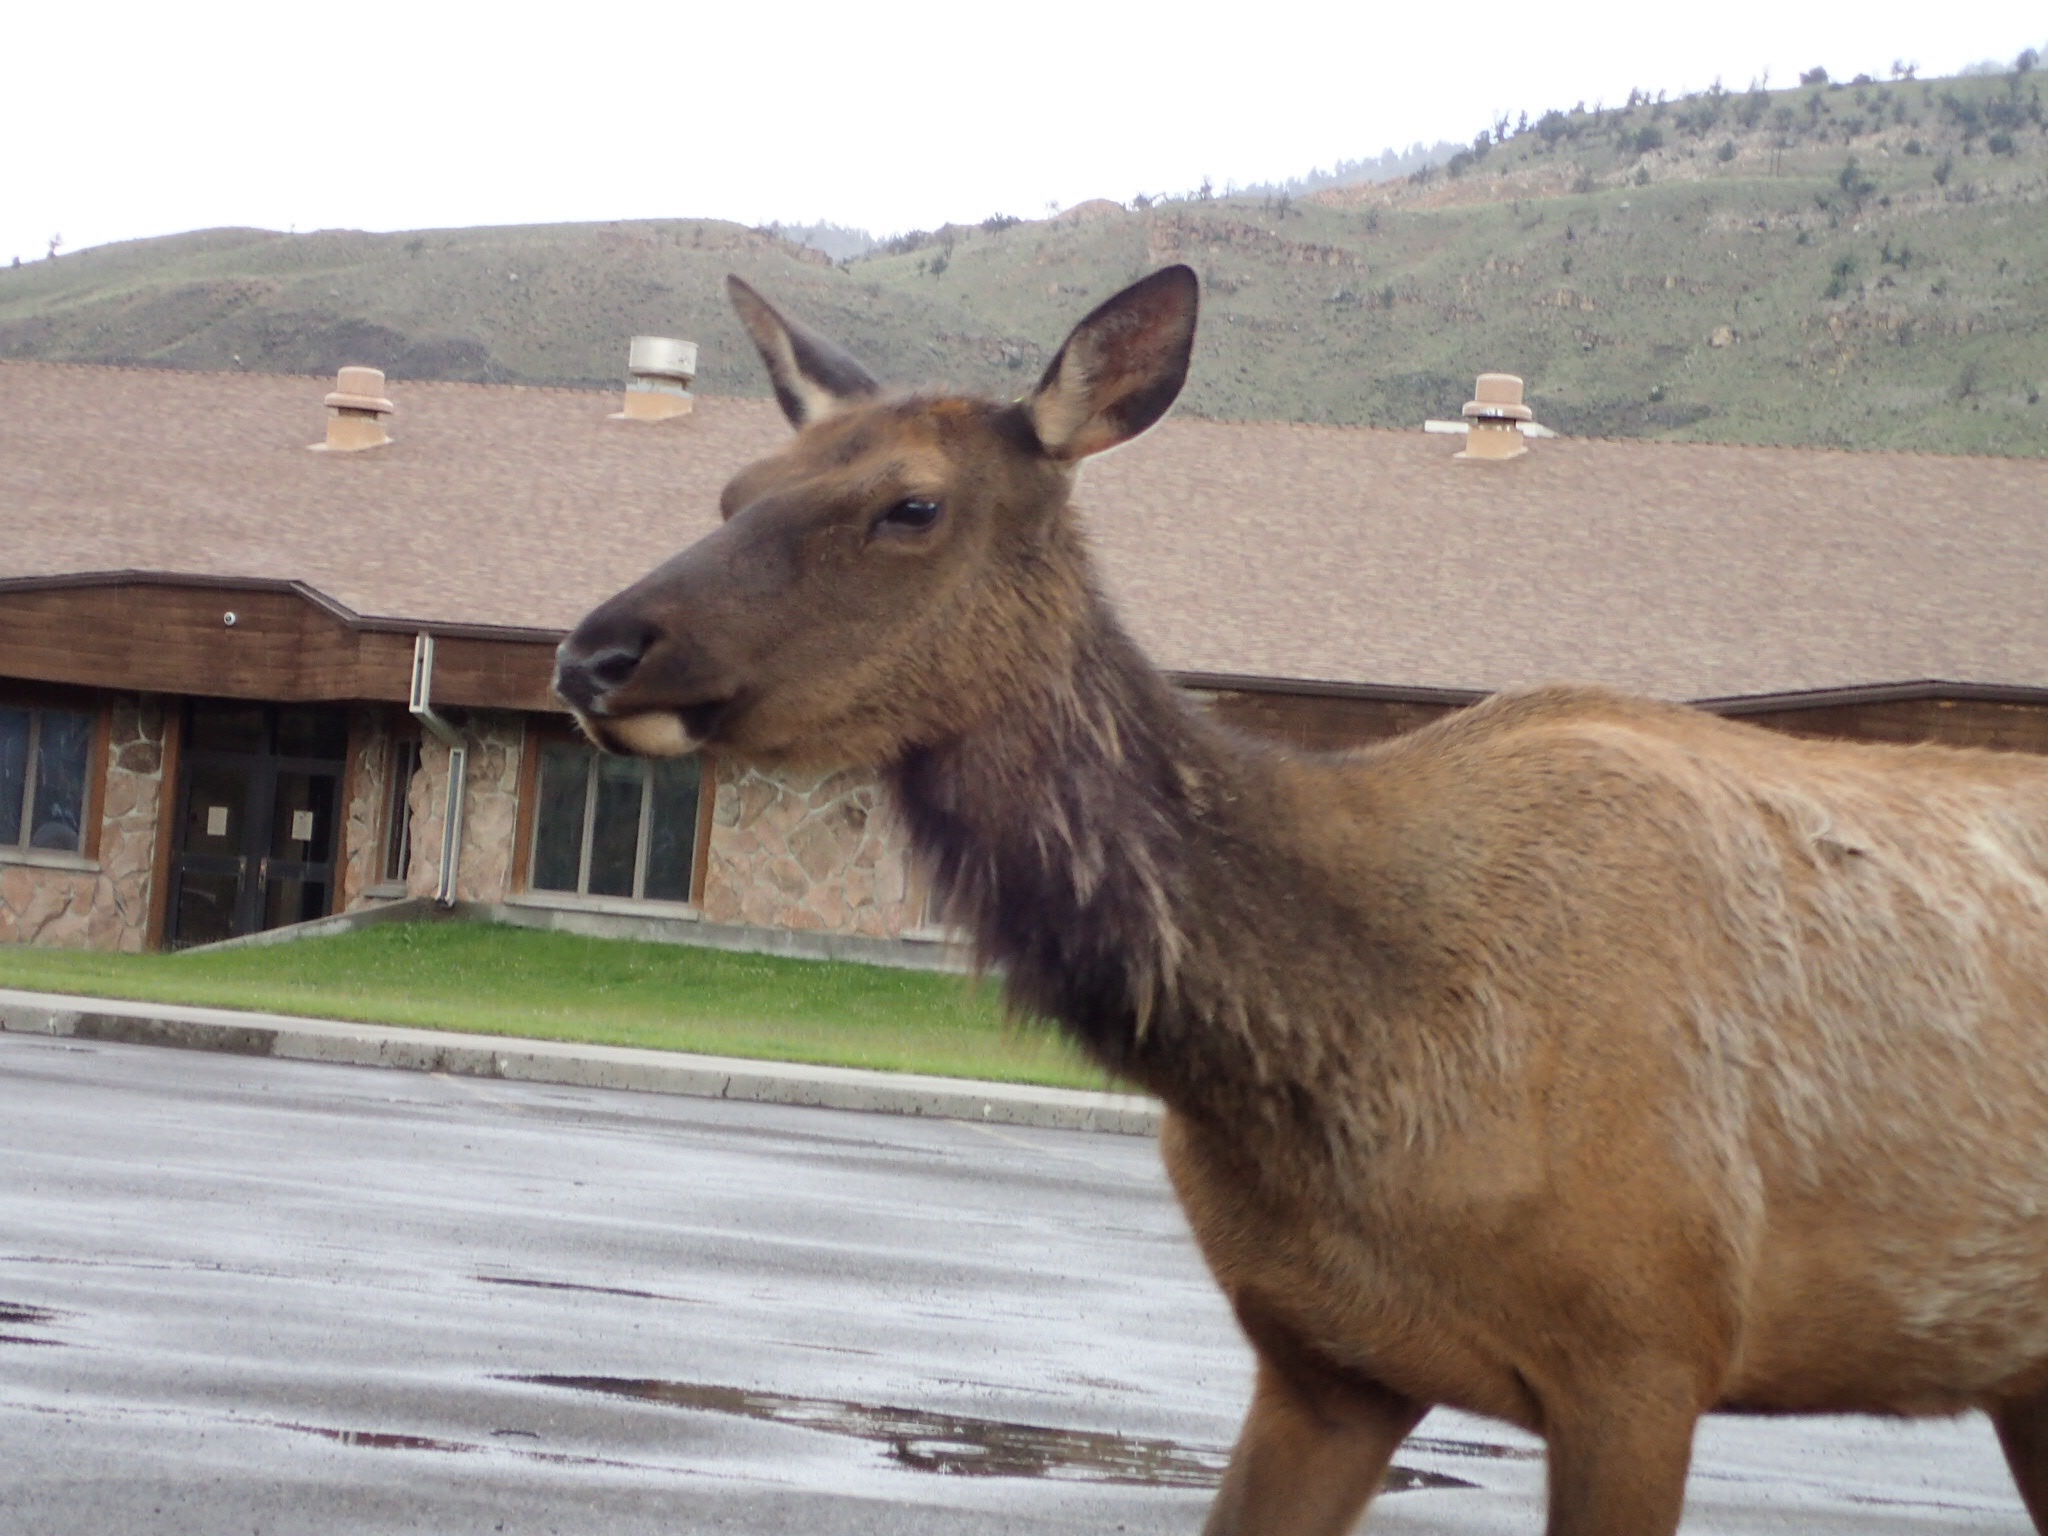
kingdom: Animalia
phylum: Chordata
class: Mammalia
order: Artiodactyla
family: Cervidae
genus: Cervus
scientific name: Cervus elaphus
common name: Red deer
